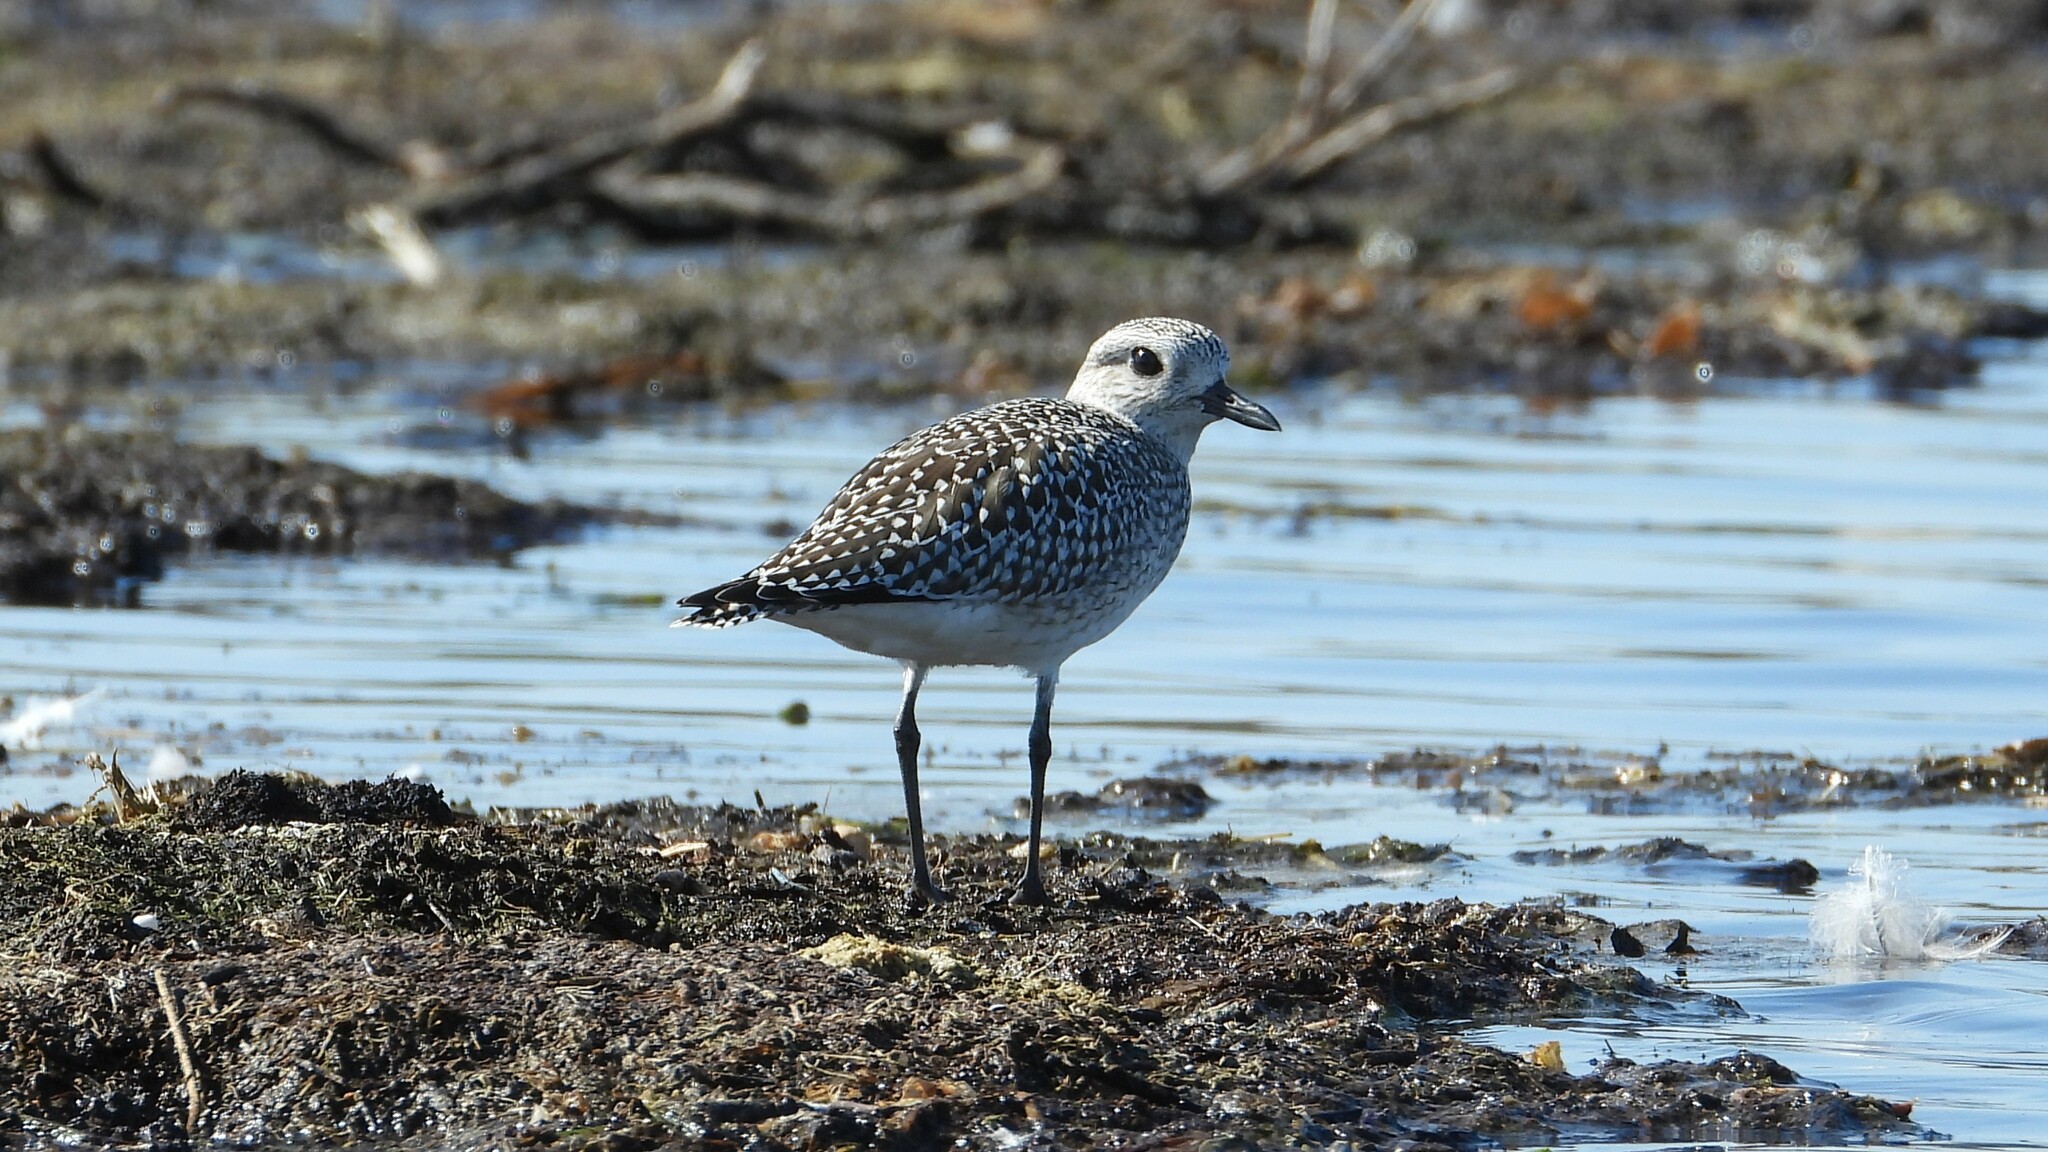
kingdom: Animalia
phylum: Chordata
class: Aves
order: Charadriiformes
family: Charadriidae
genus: Pluvialis
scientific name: Pluvialis squatarola
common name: Grey plover
